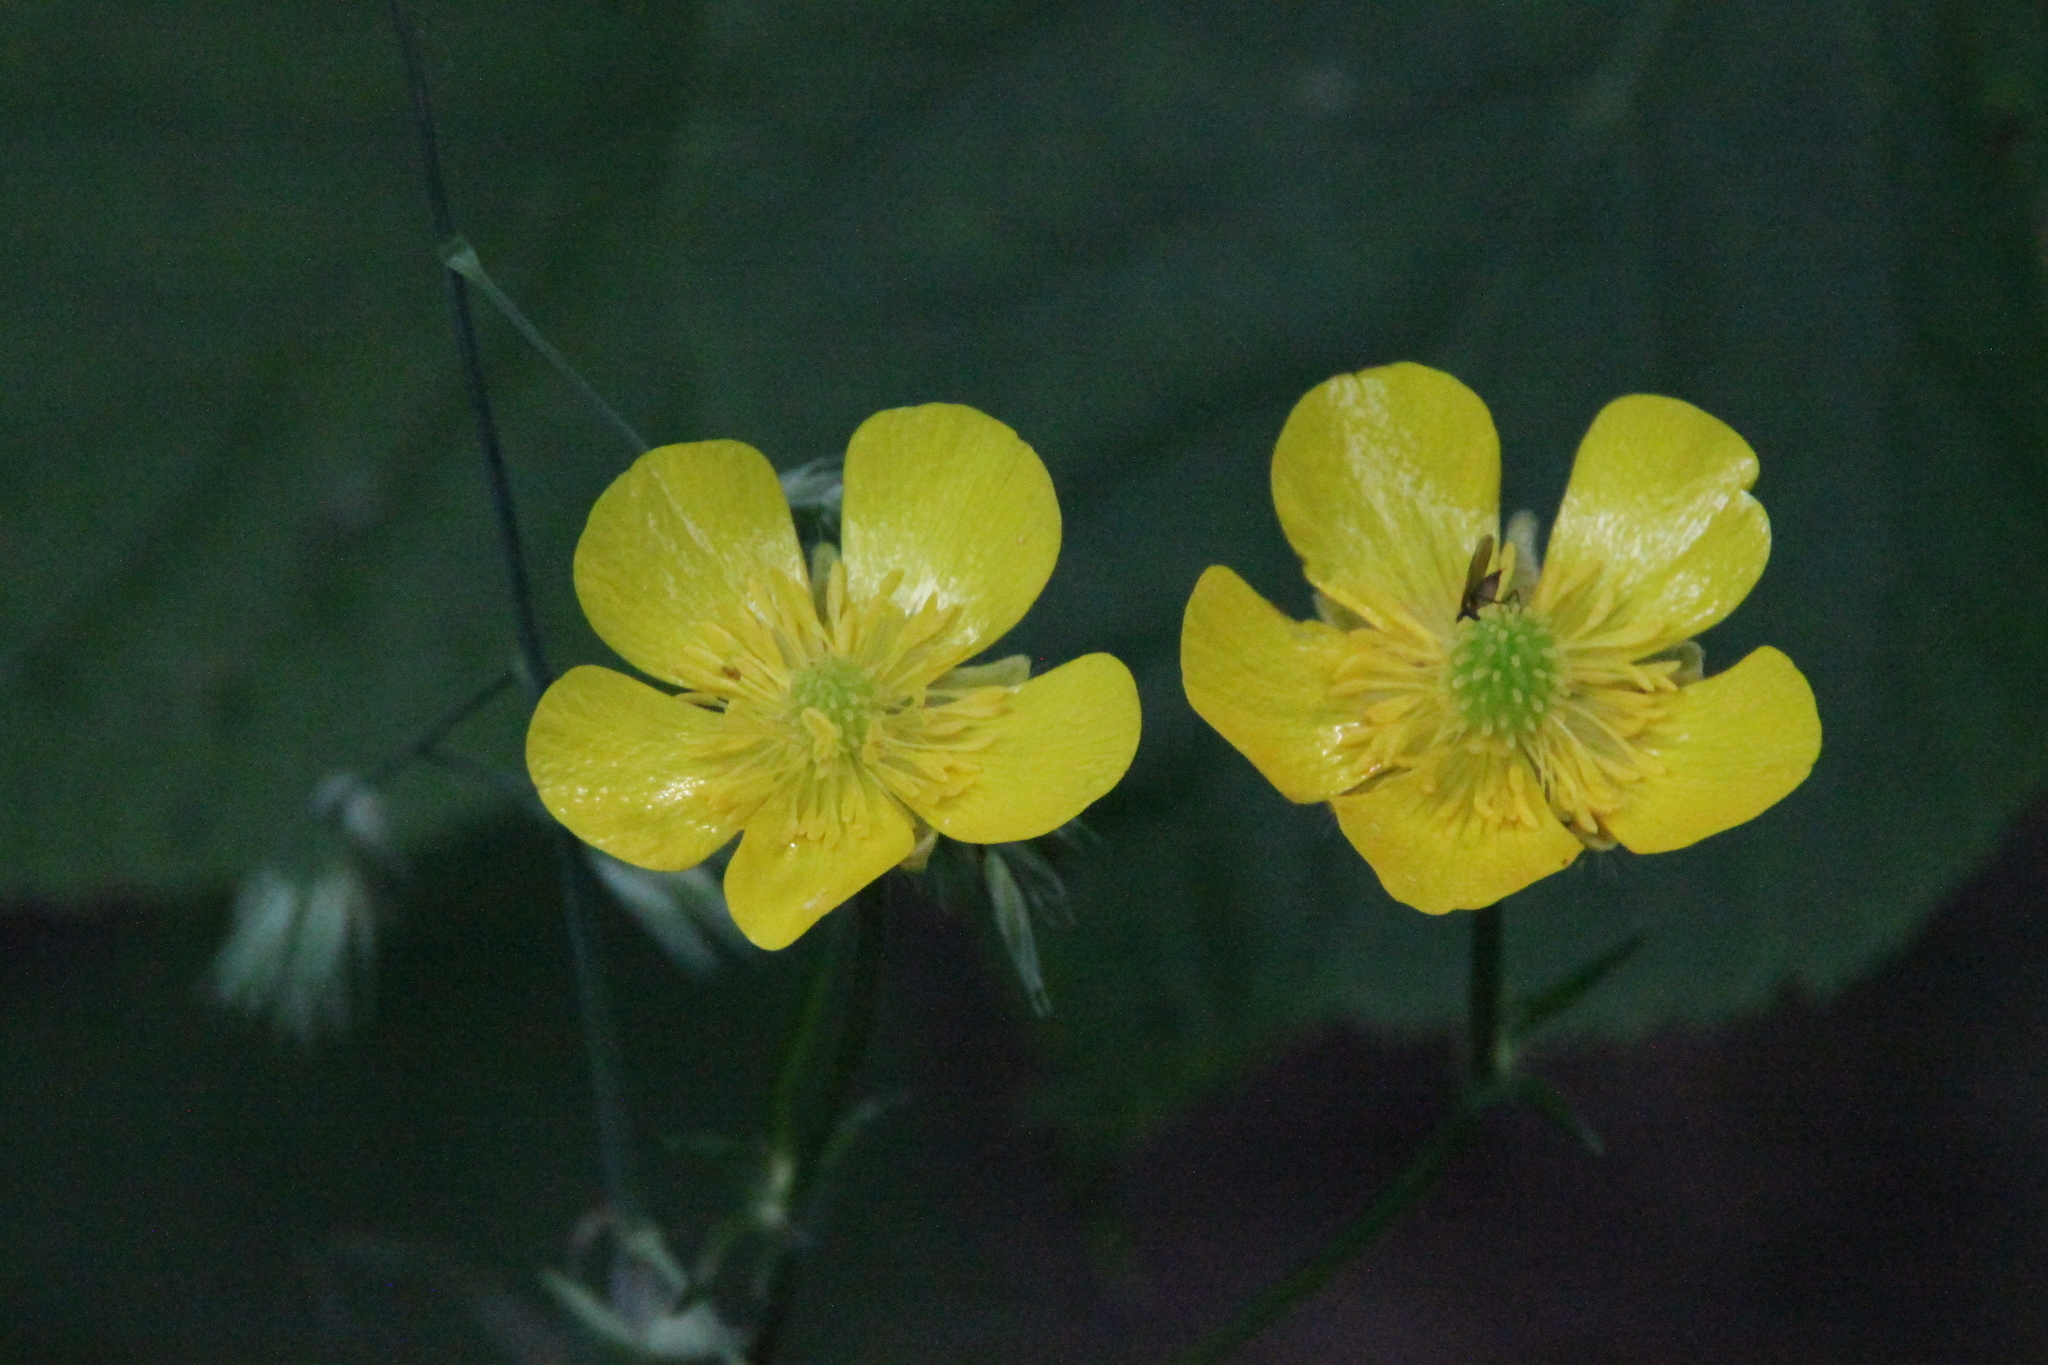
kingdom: Plantae
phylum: Tracheophyta
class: Magnoliopsida
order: Ranunculales
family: Ranunculaceae
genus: Ranunculus
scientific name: Ranunculus polyanthemos
